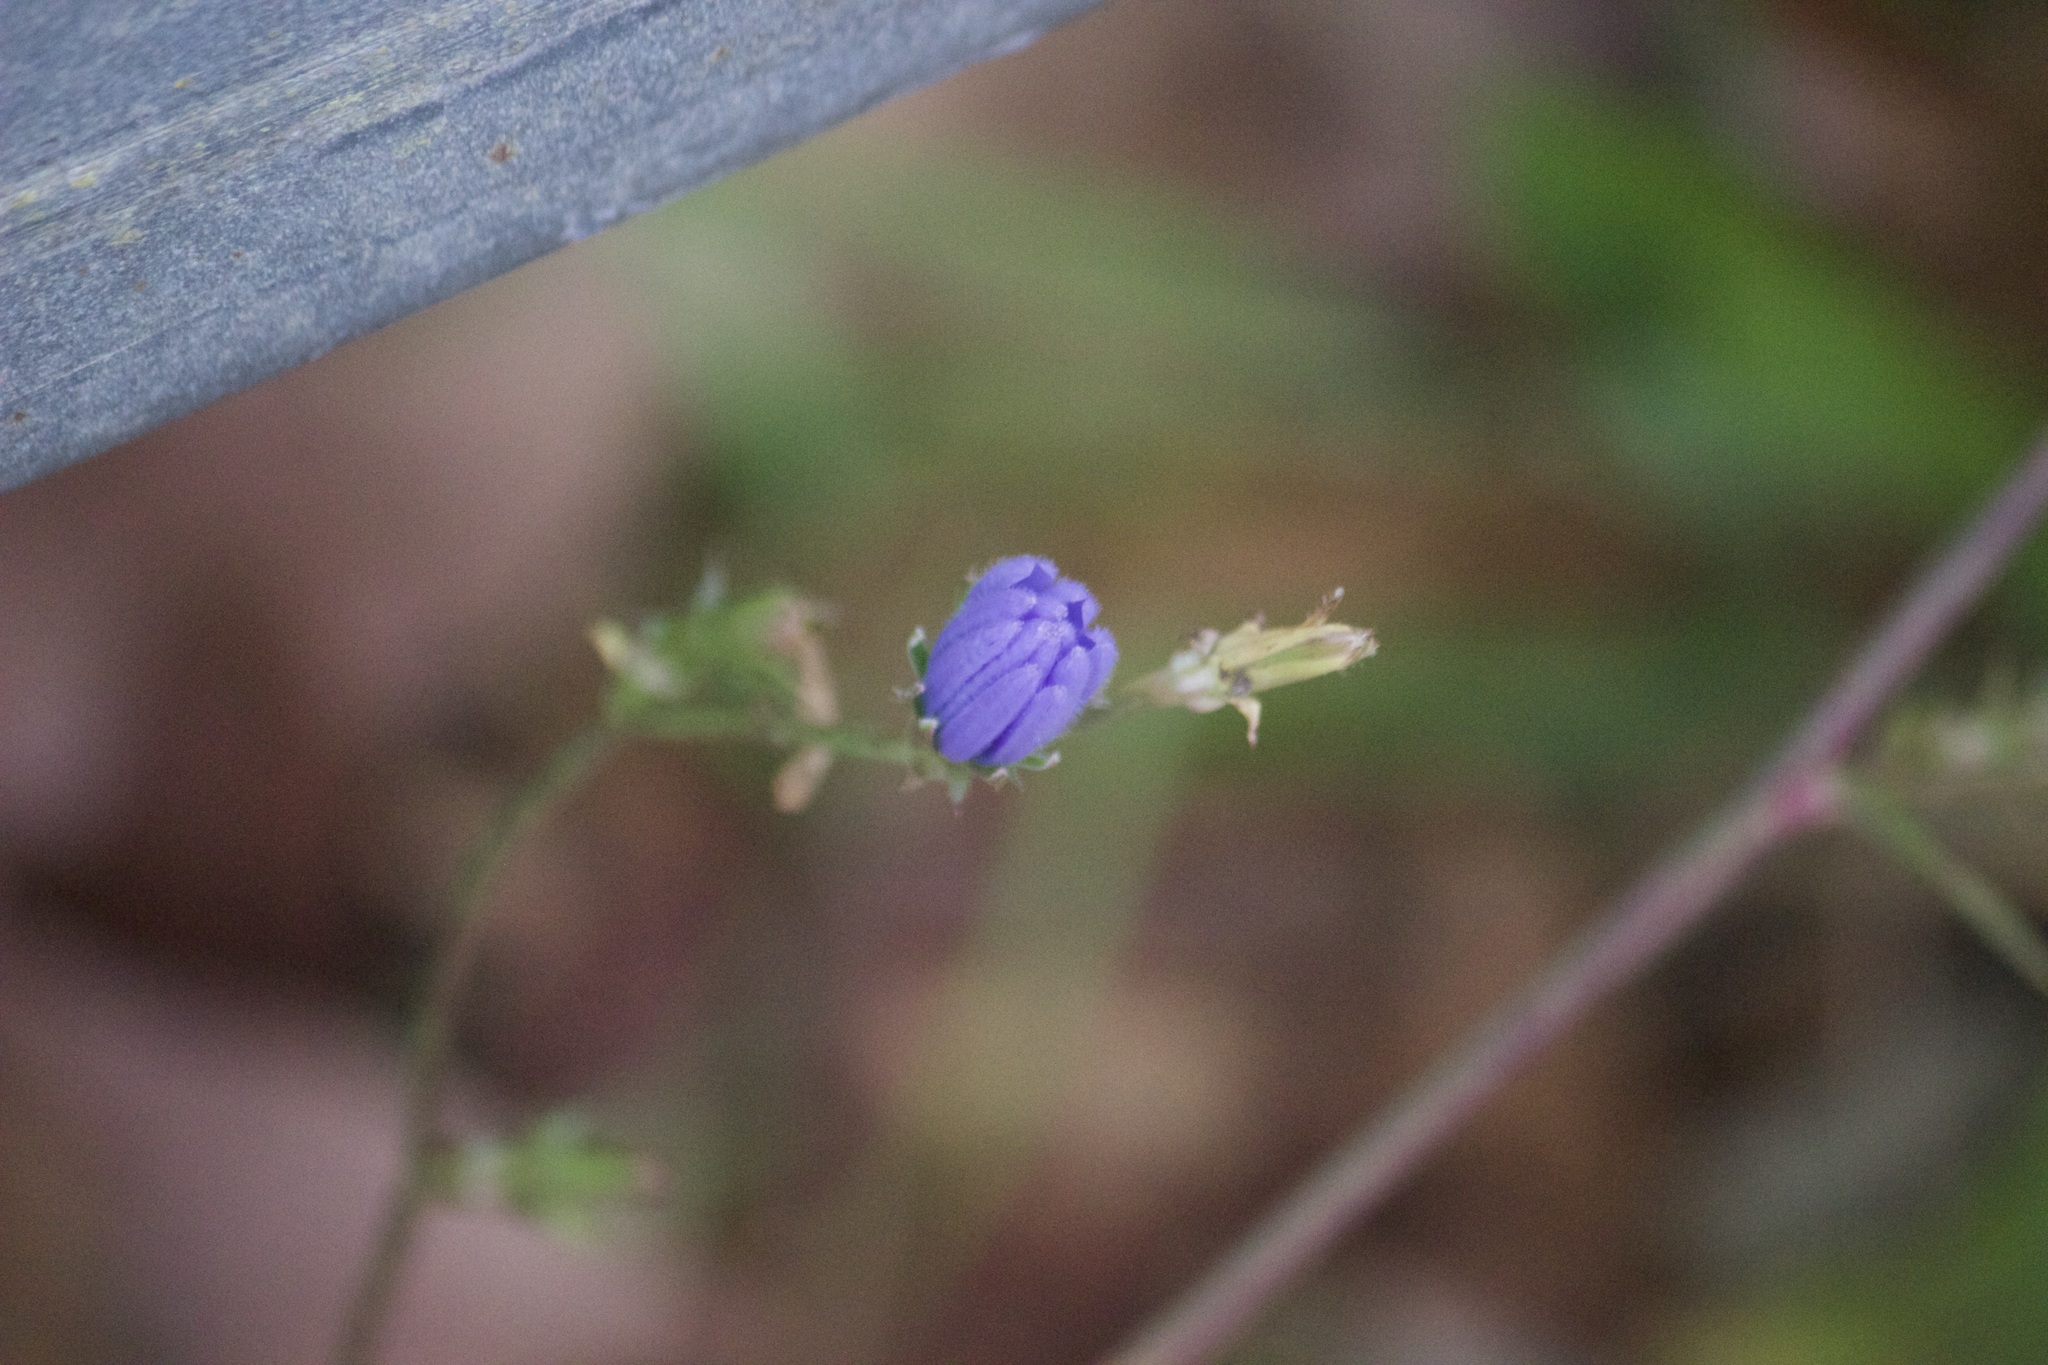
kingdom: Plantae
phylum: Tracheophyta
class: Magnoliopsida
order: Asterales
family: Asteraceae
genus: Cichorium
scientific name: Cichorium intybus
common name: Chicory
